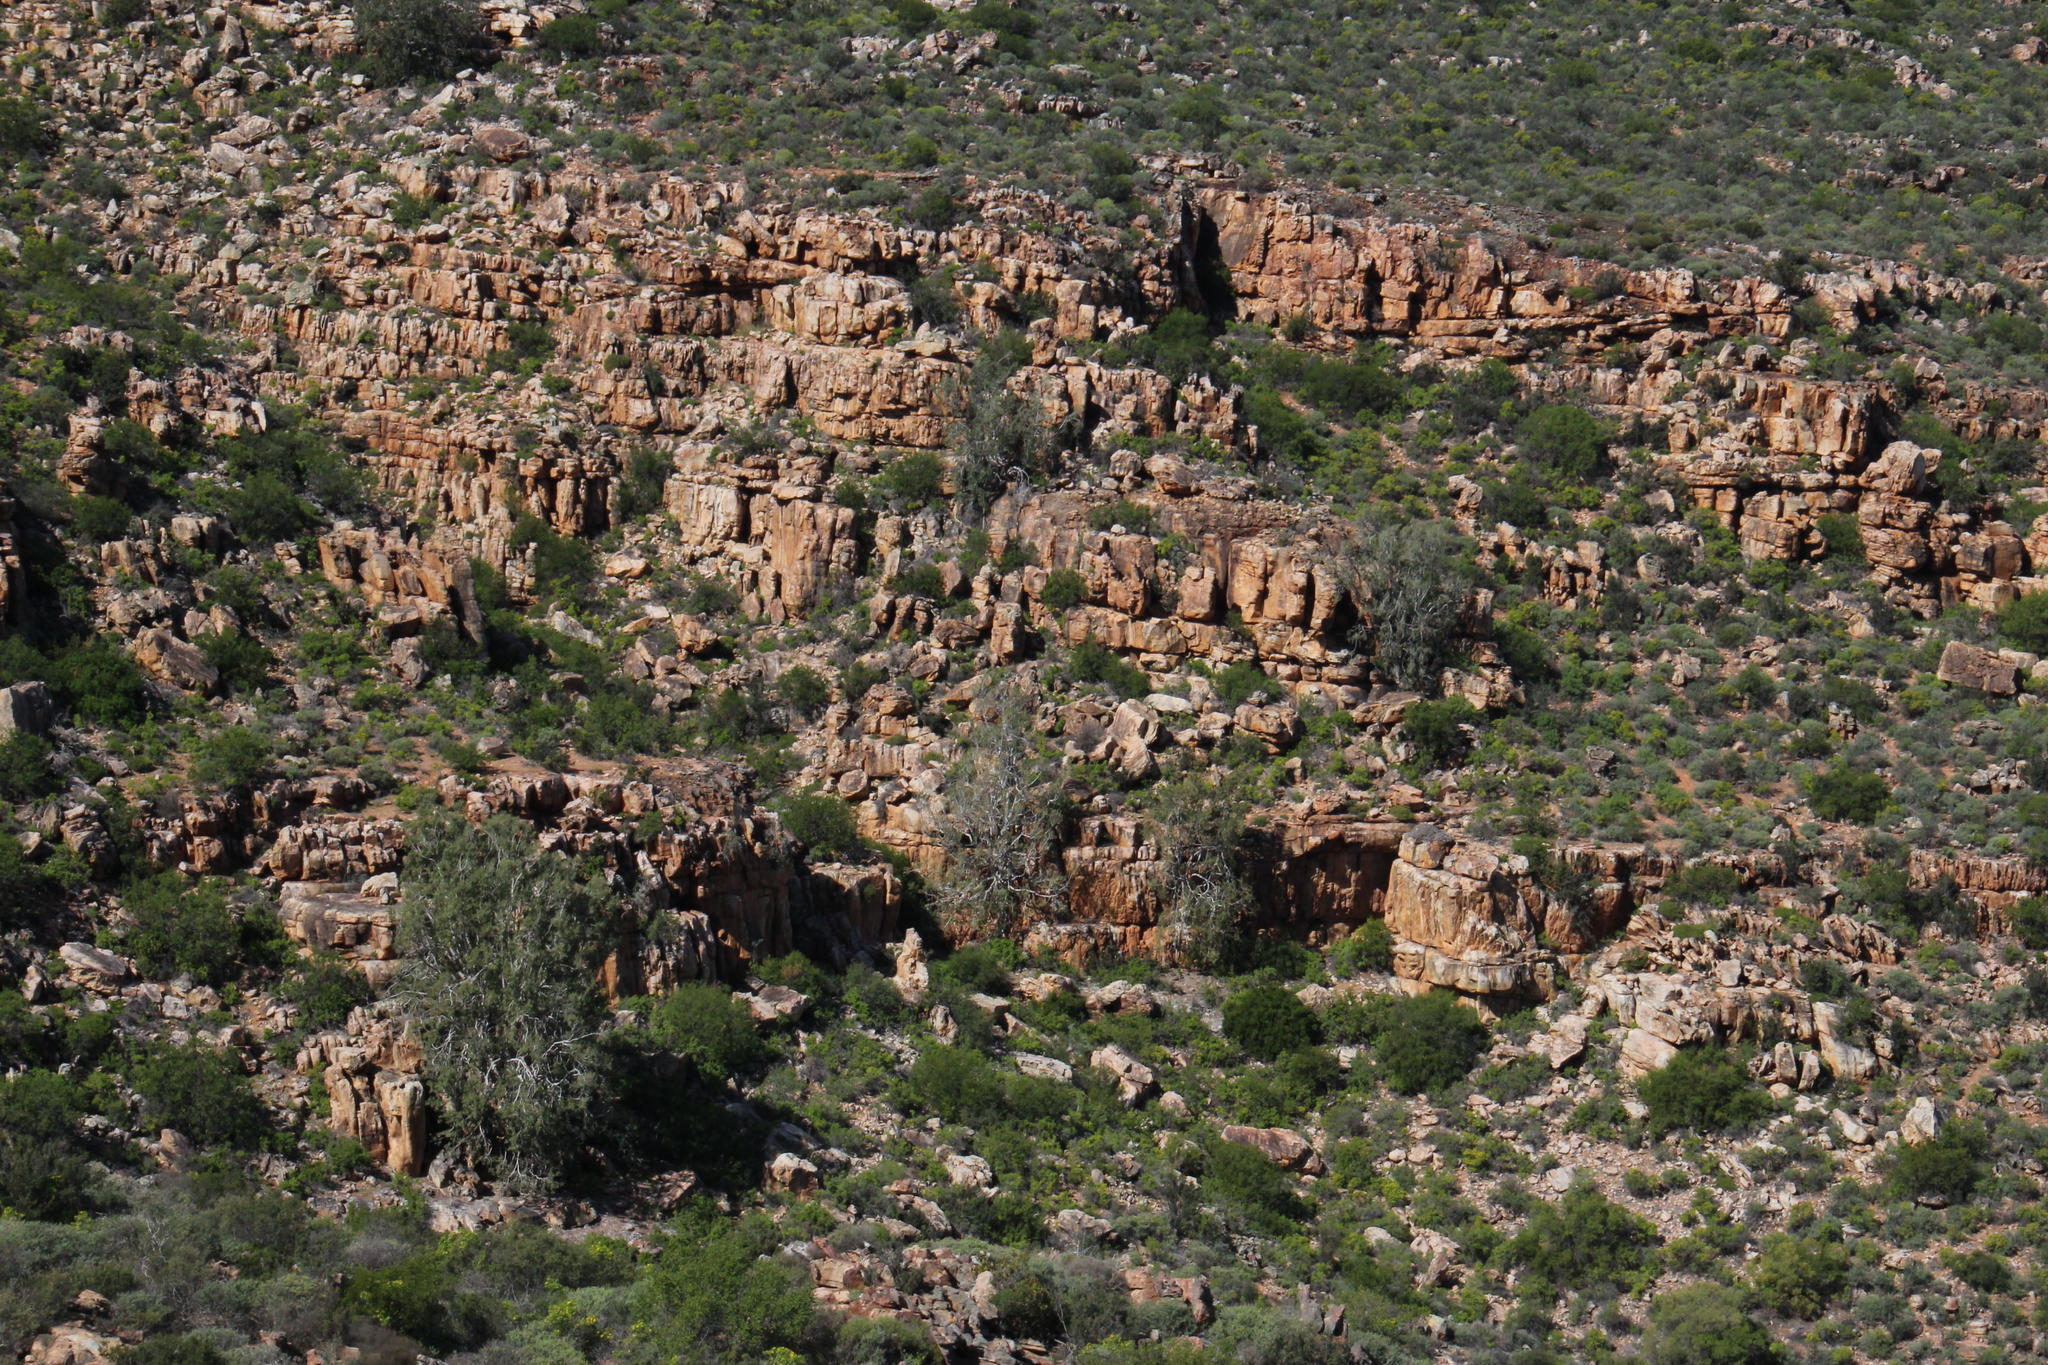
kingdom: Plantae
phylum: Tracheophyta
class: Magnoliopsida
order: Rosales
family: Moraceae
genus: Ficus
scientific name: Ficus cordata
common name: Namaqua rock fig
